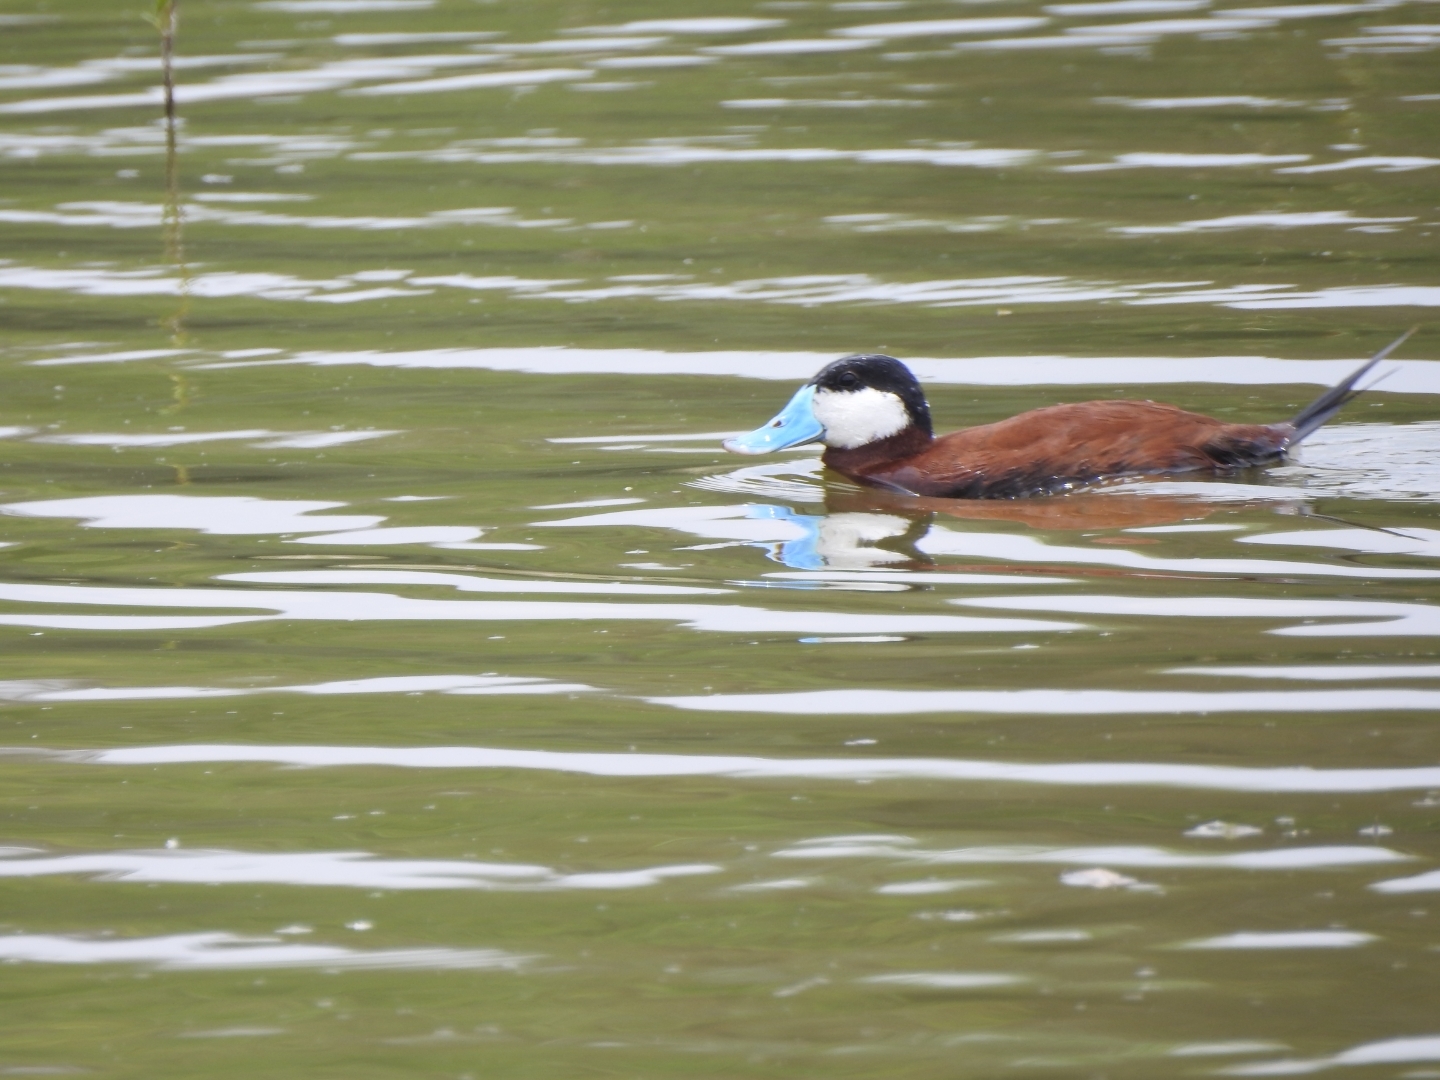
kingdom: Animalia
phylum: Chordata
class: Aves
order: Anseriformes
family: Anatidae
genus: Oxyura
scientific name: Oxyura jamaicensis
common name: Ruddy duck
